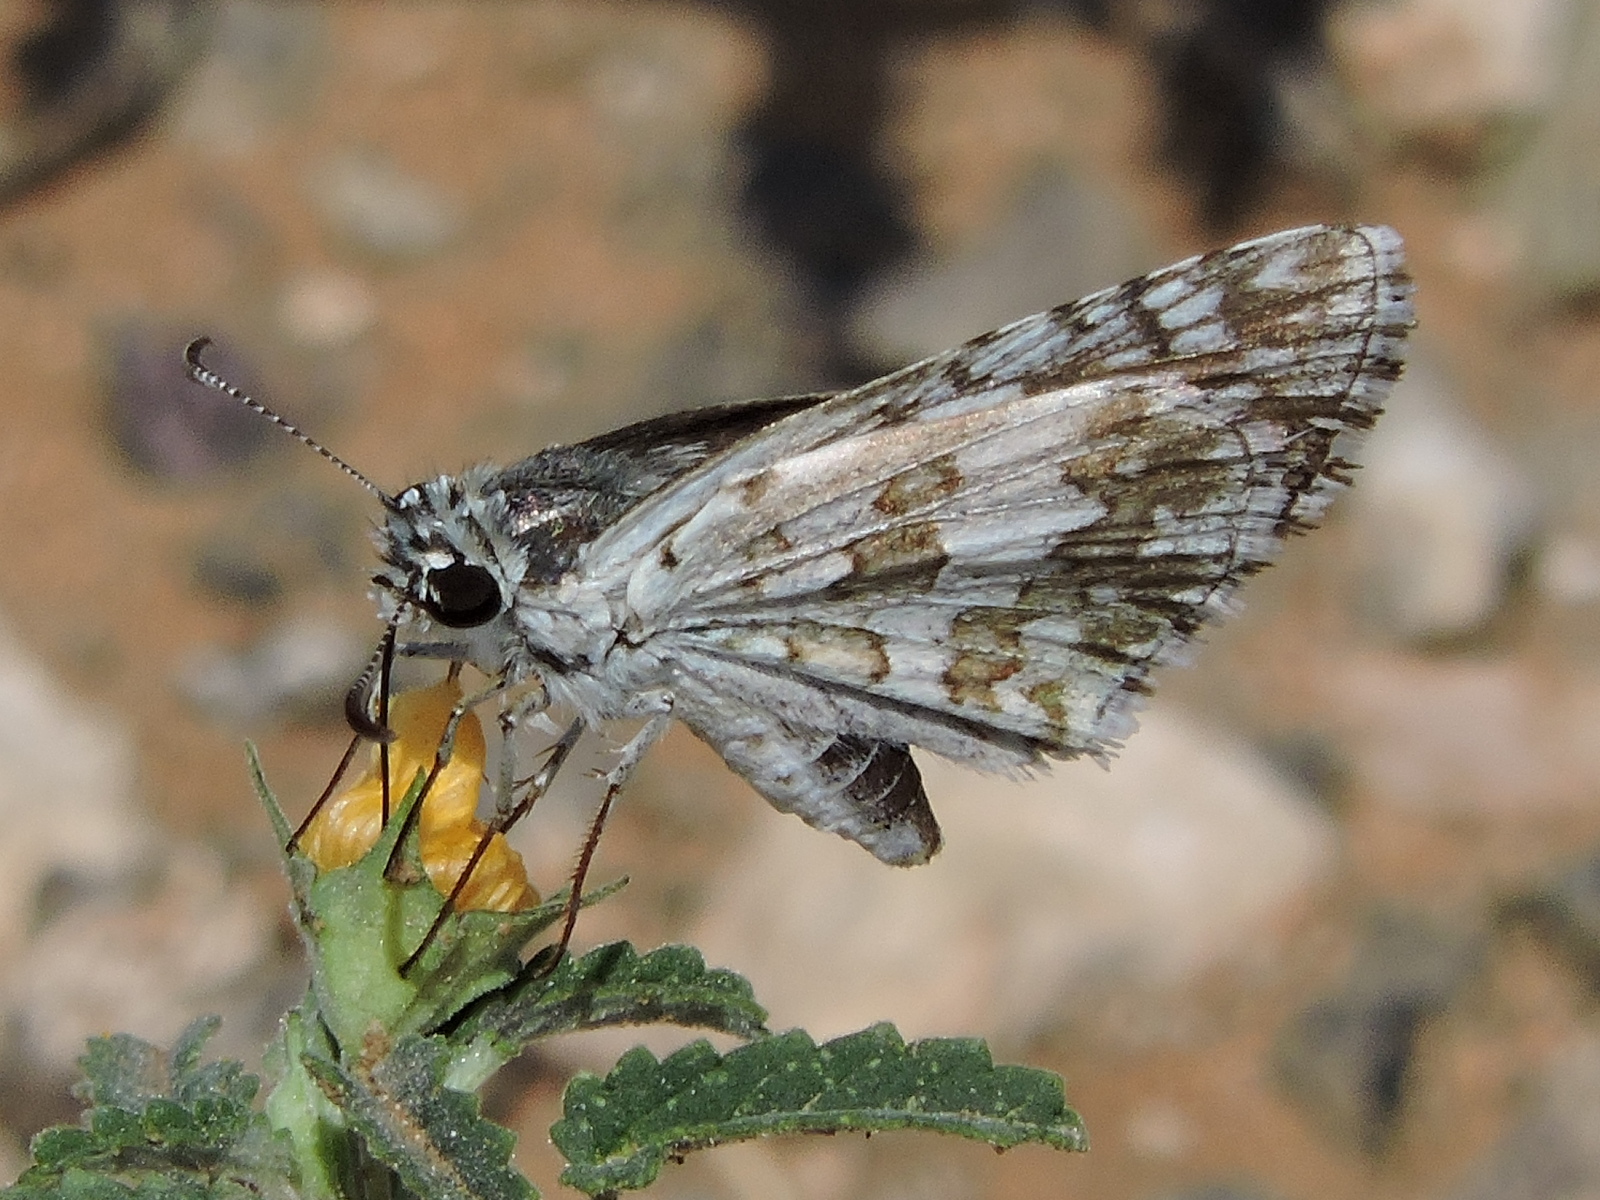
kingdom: Animalia
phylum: Arthropoda
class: Insecta
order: Lepidoptera
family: Hesperiidae
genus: Burnsius
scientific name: Burnsius
